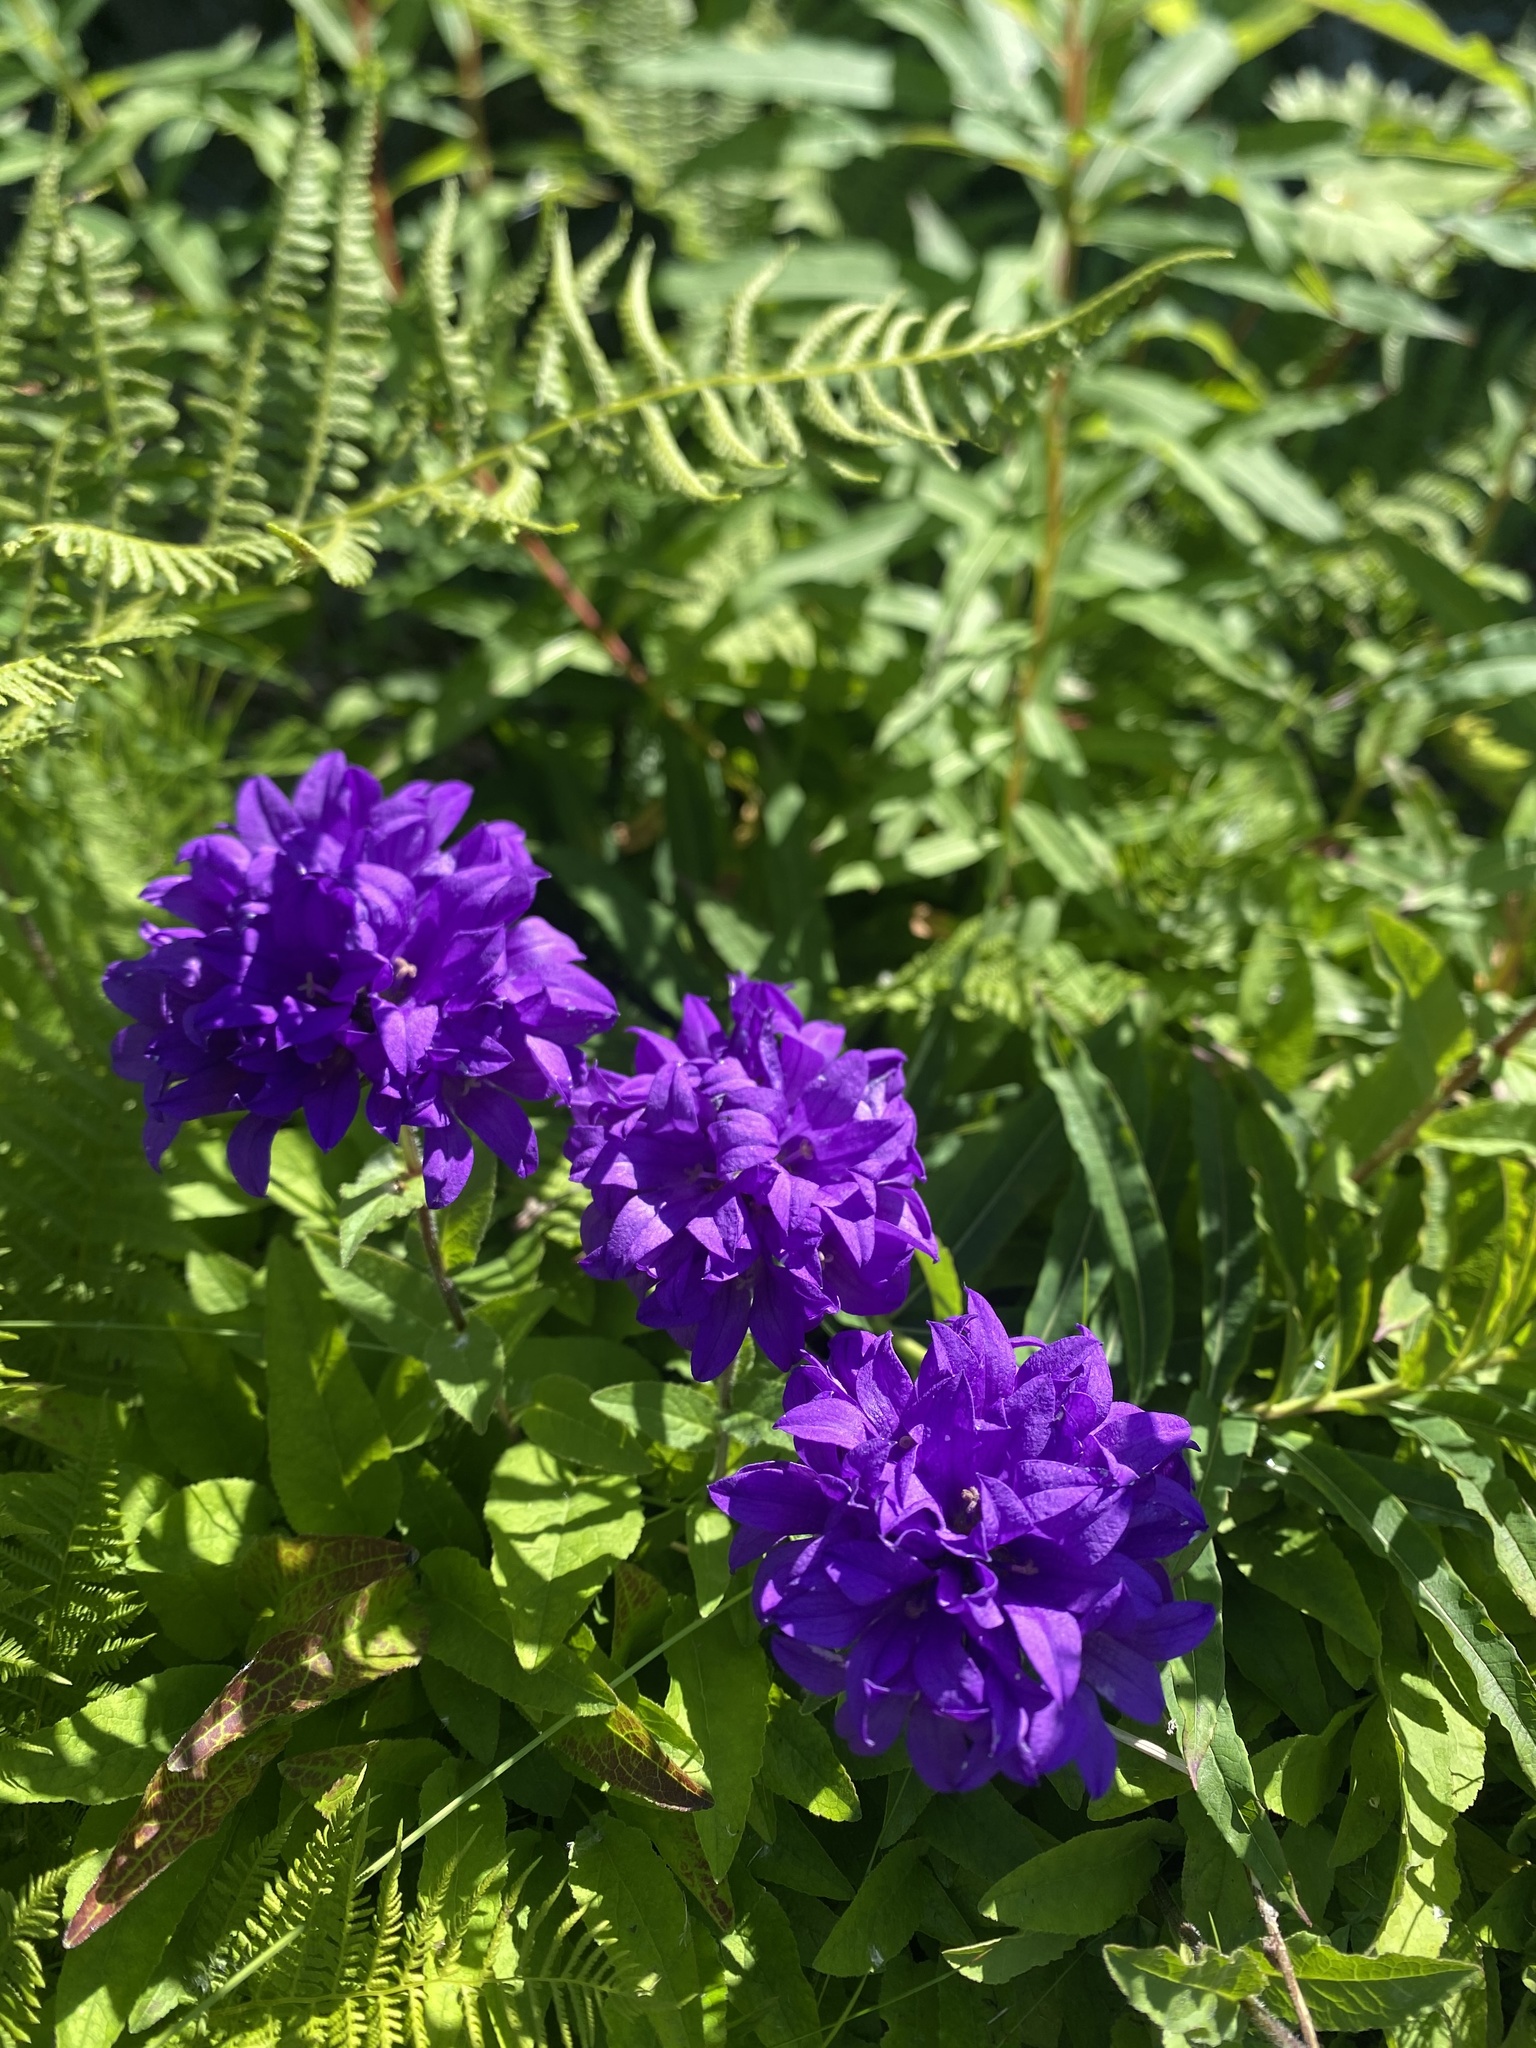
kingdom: Plantae
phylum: Tracheophyta
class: Magnoliopsida
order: Asterales
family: Campanulaceae
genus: Campanula
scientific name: Campanula glomerata
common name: Clustered bellflower
